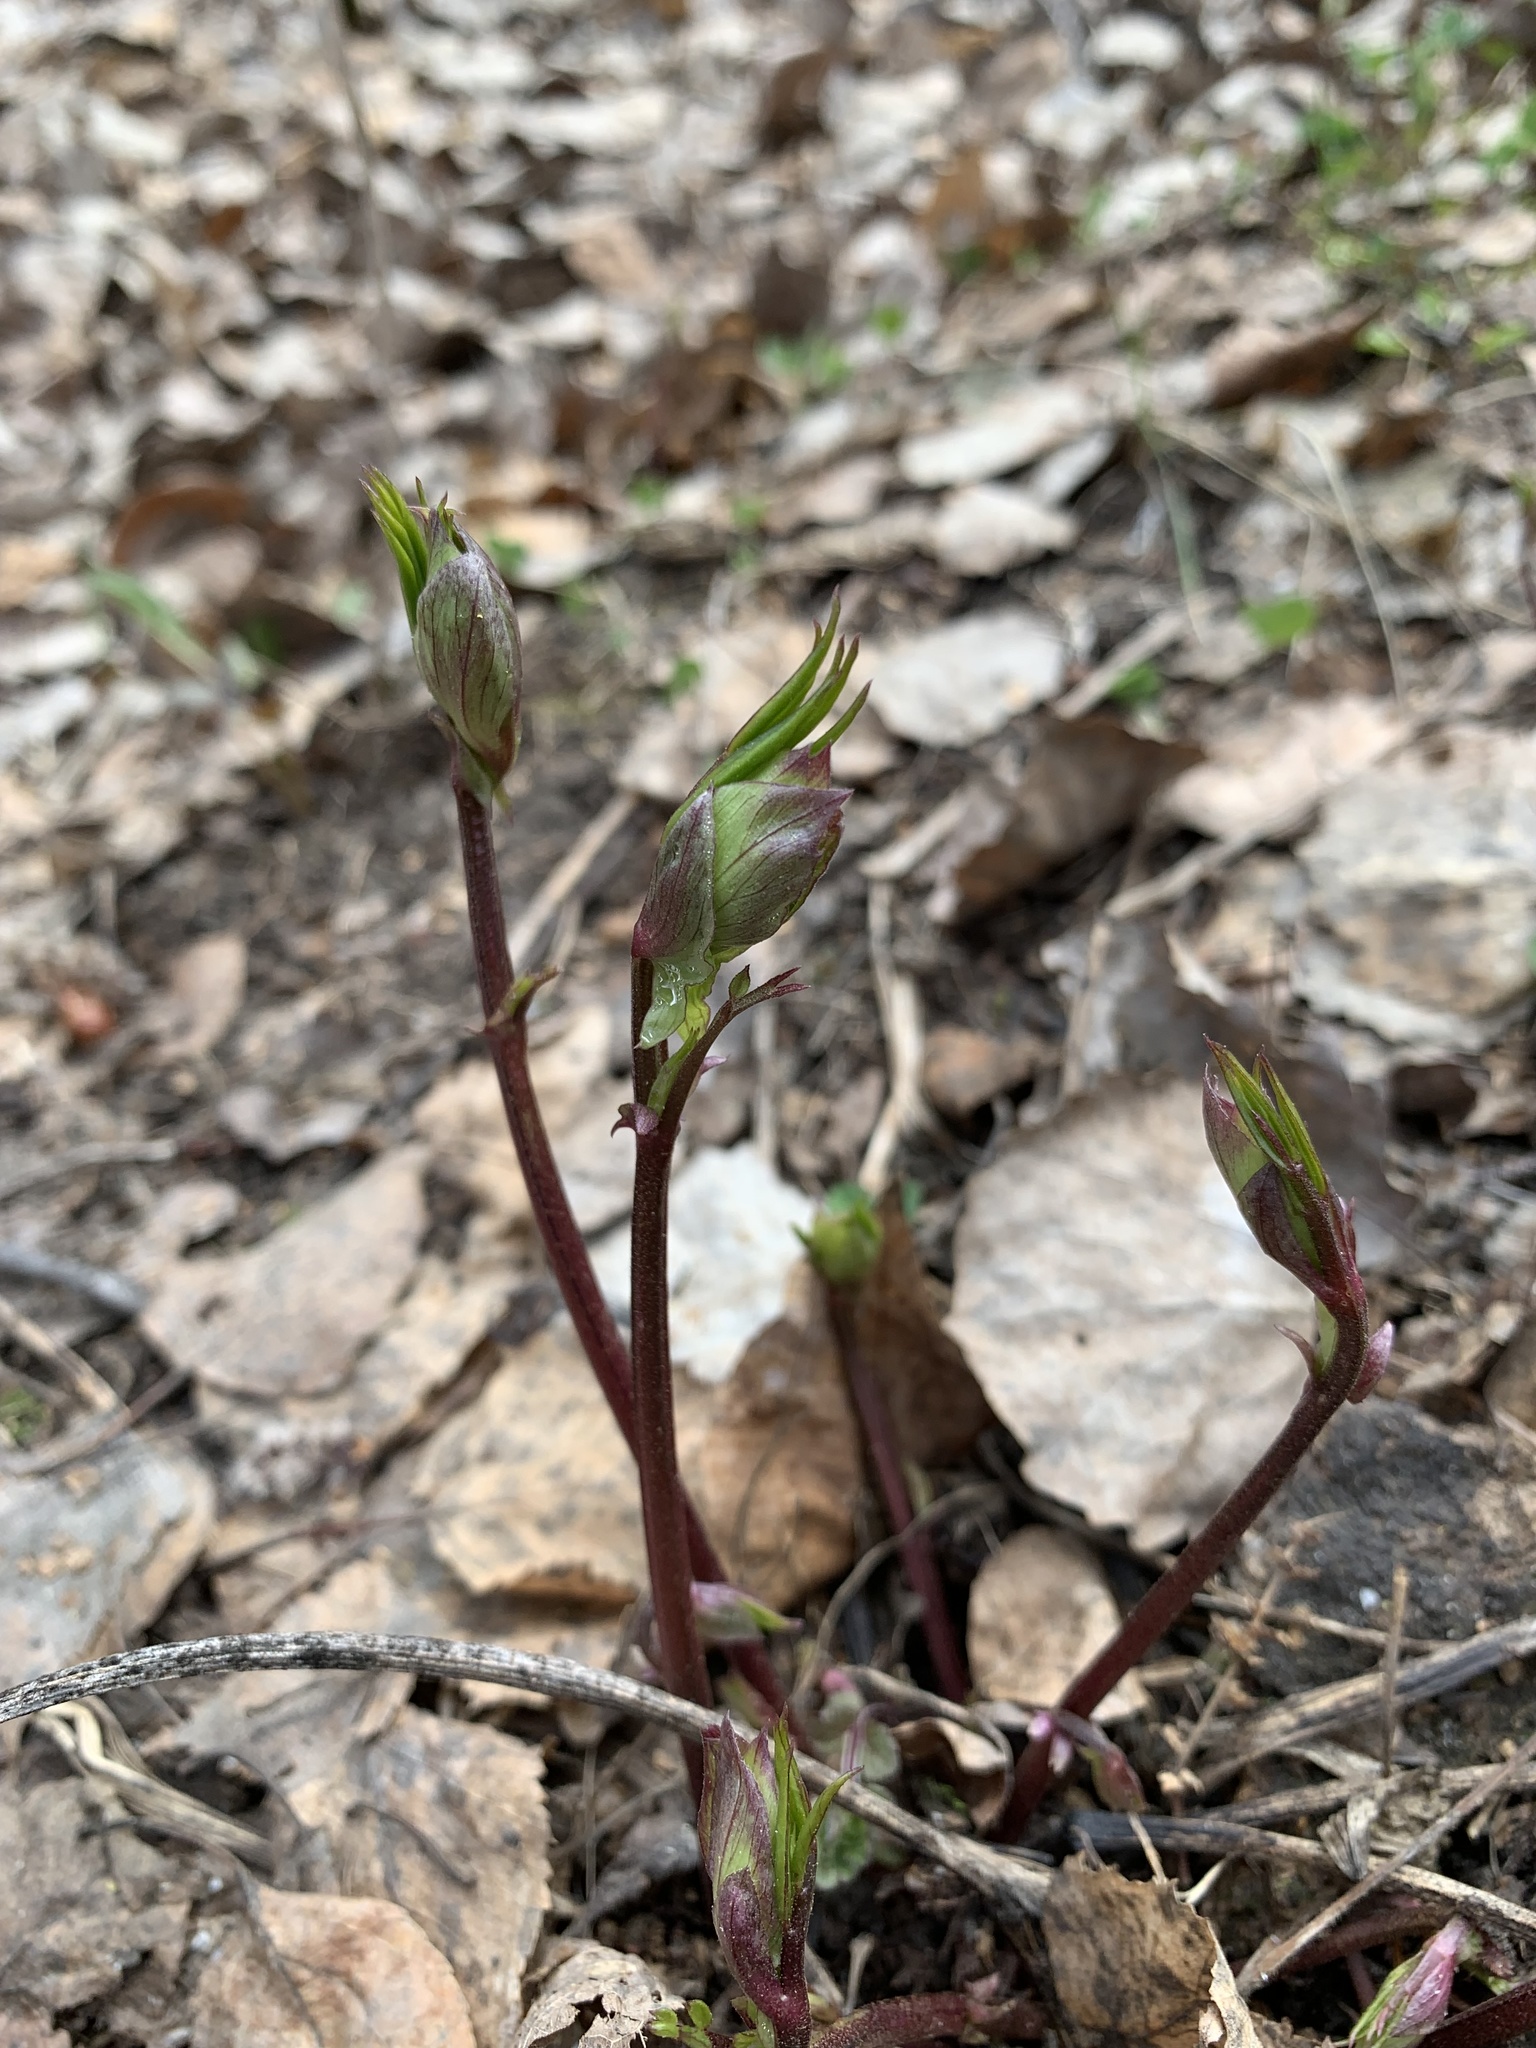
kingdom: Plantae
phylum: Tracheophyta
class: Magnoliopsida
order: Fabales
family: Fabaceae
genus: Lathyrus
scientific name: Lathyrus vernus
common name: Spring pea
